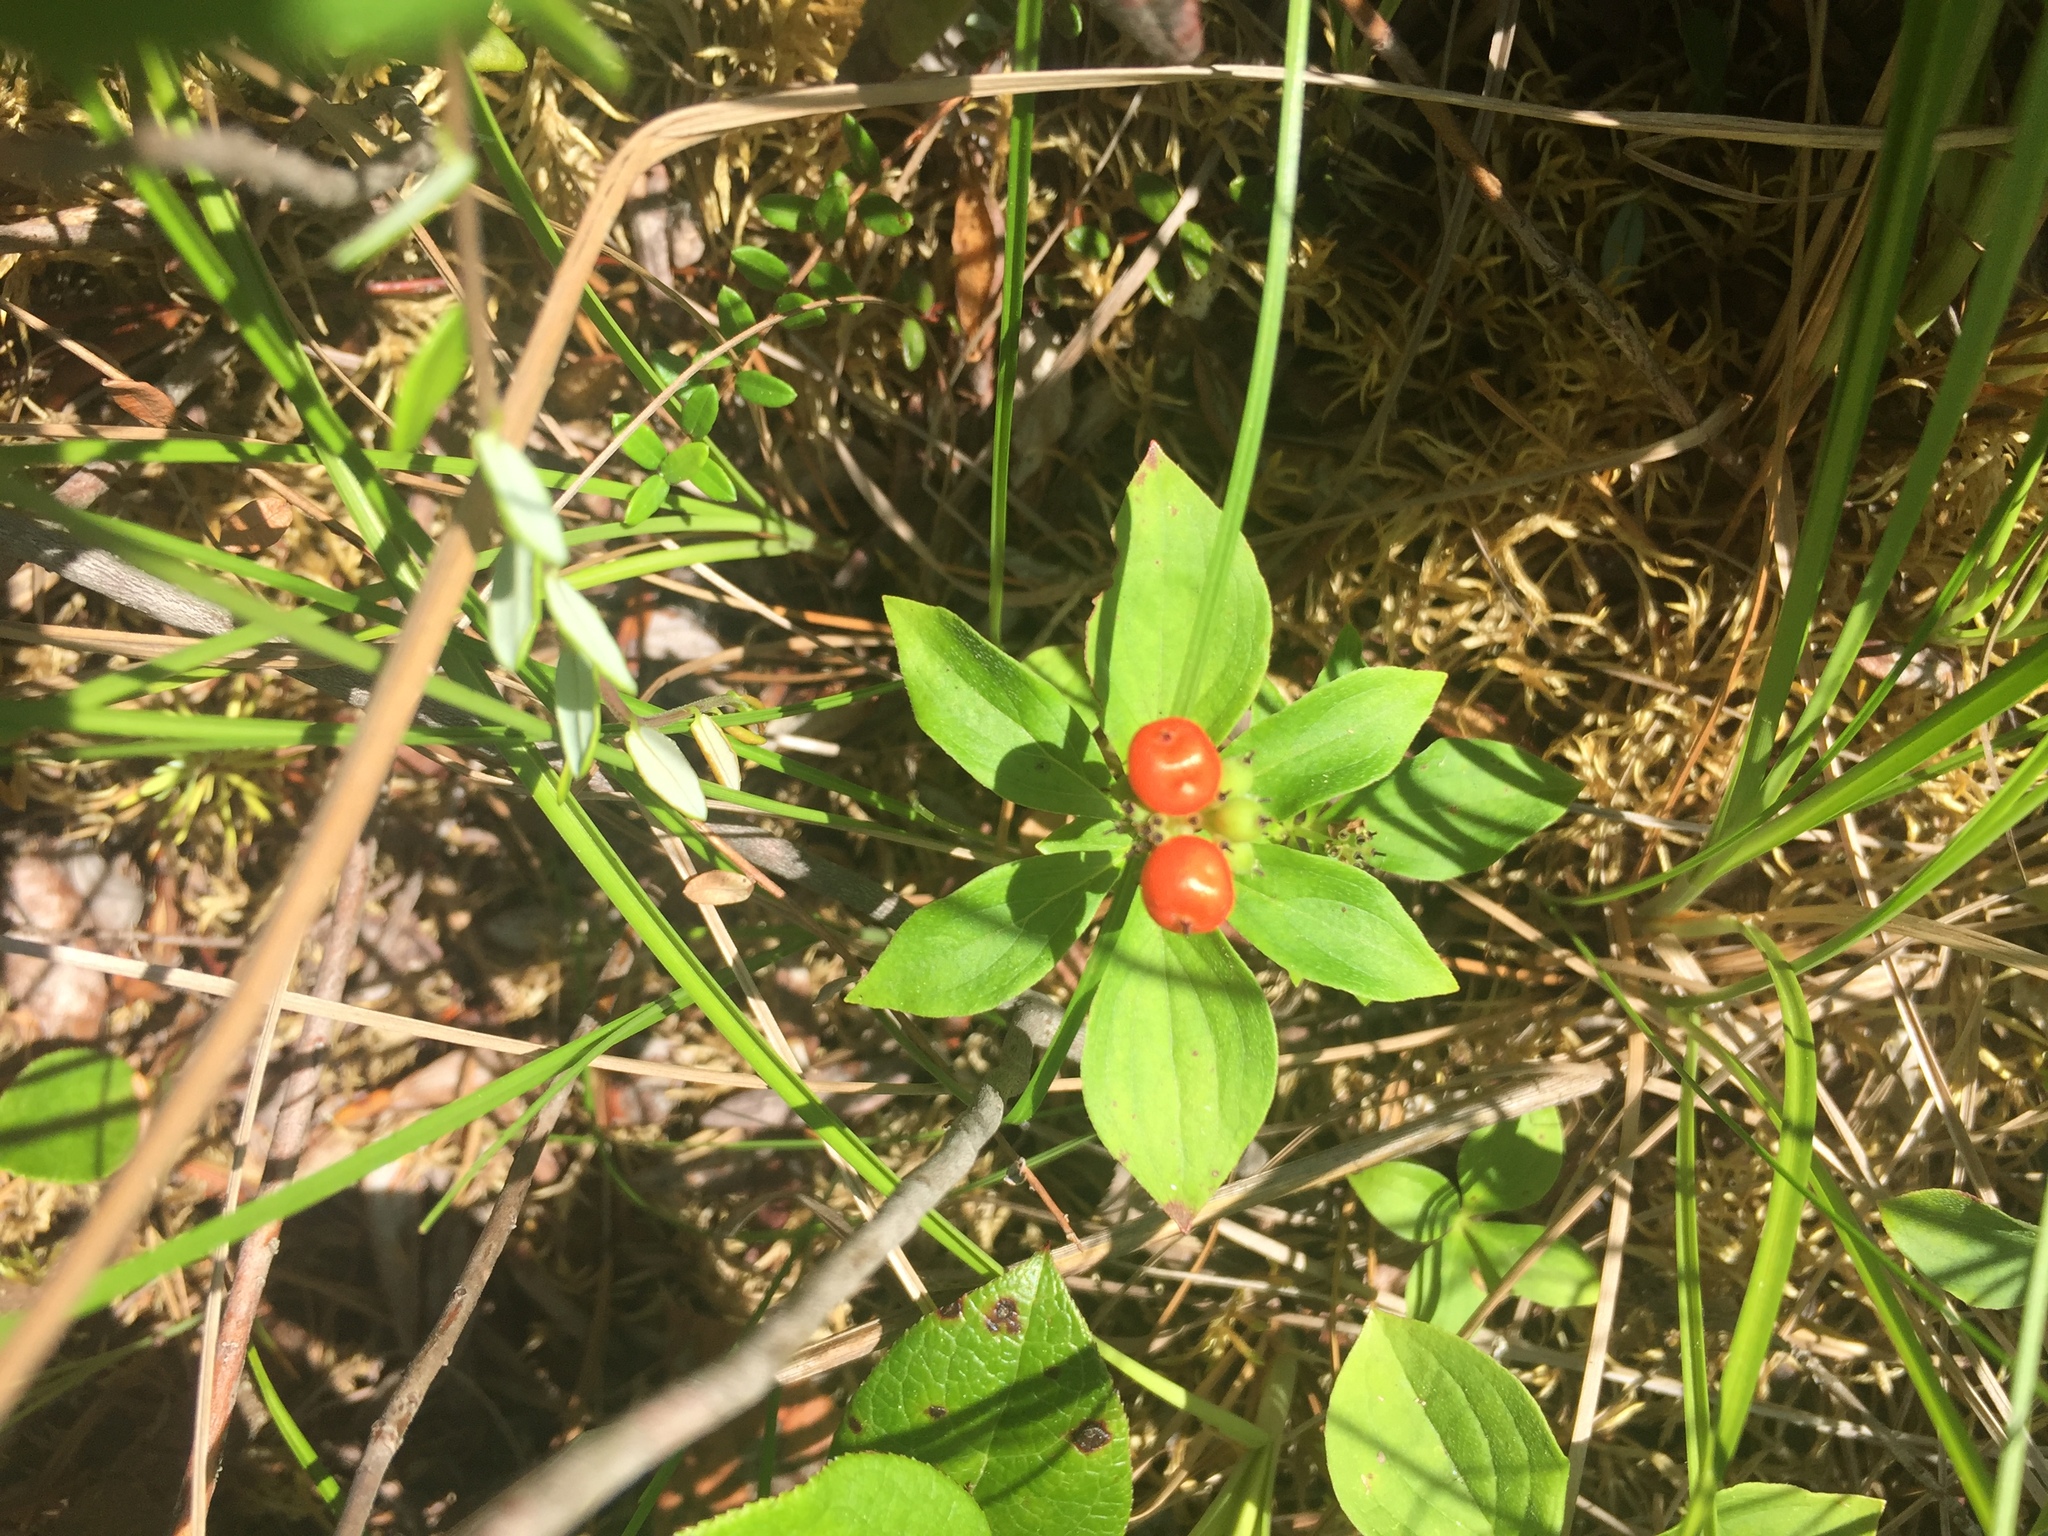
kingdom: Plantae
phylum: Tracheophyta
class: Magnoliopsida
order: Cornales
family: Cornaceae
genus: Cornus
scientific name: Cornus unalaschkensis
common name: Alaska bunchberry
